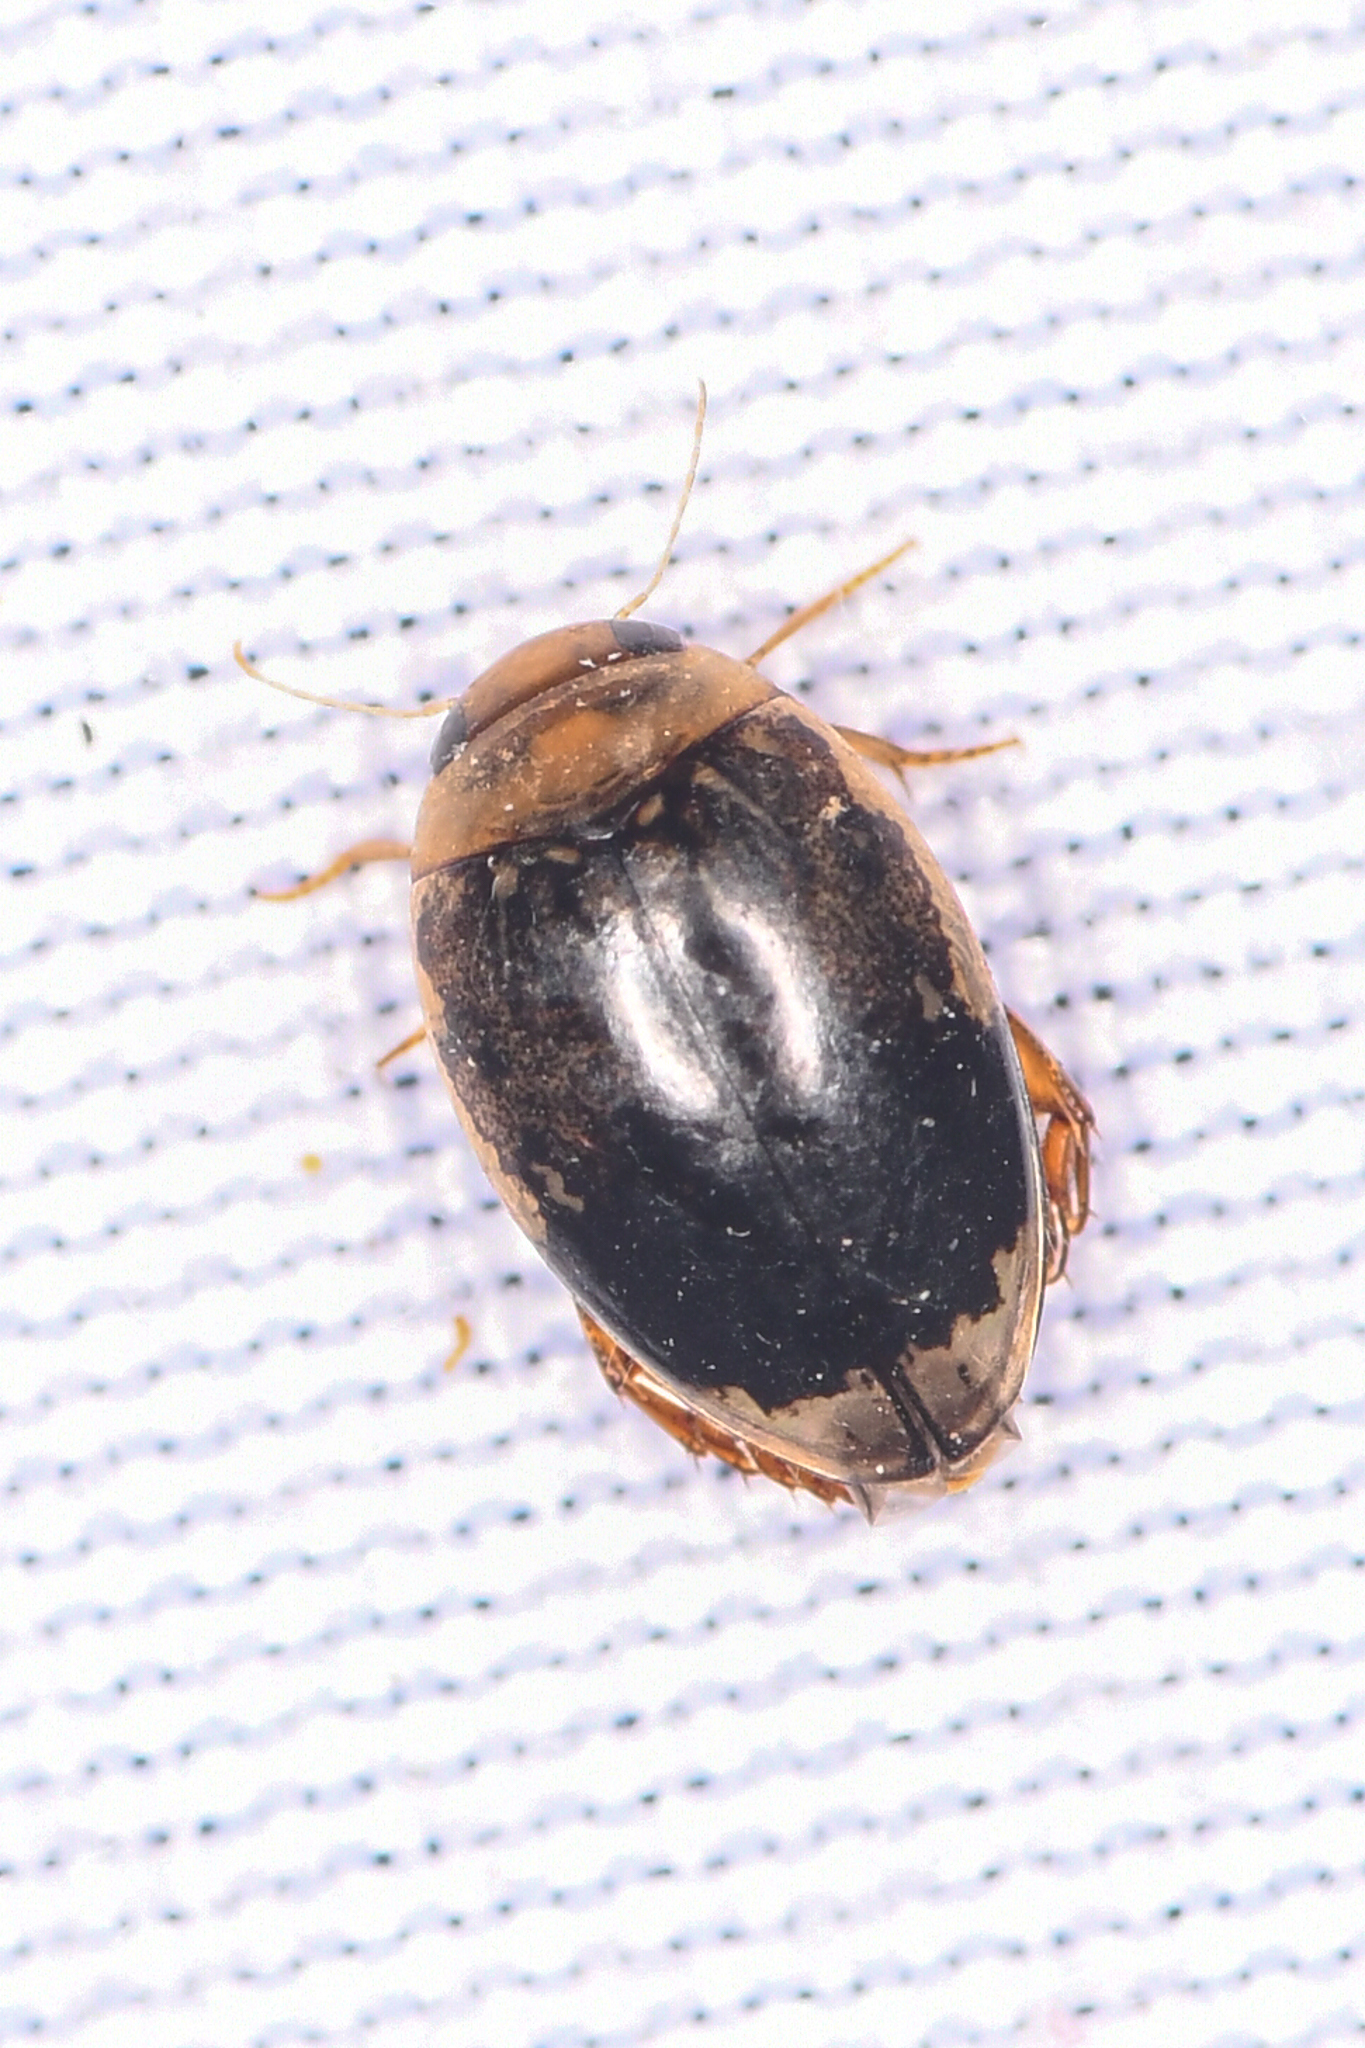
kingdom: Animalia
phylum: Arthropoda
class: Insecta
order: Coleoptera
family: Dytiscidae
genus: Laccophilus
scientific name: Laccophilus fasciatus
